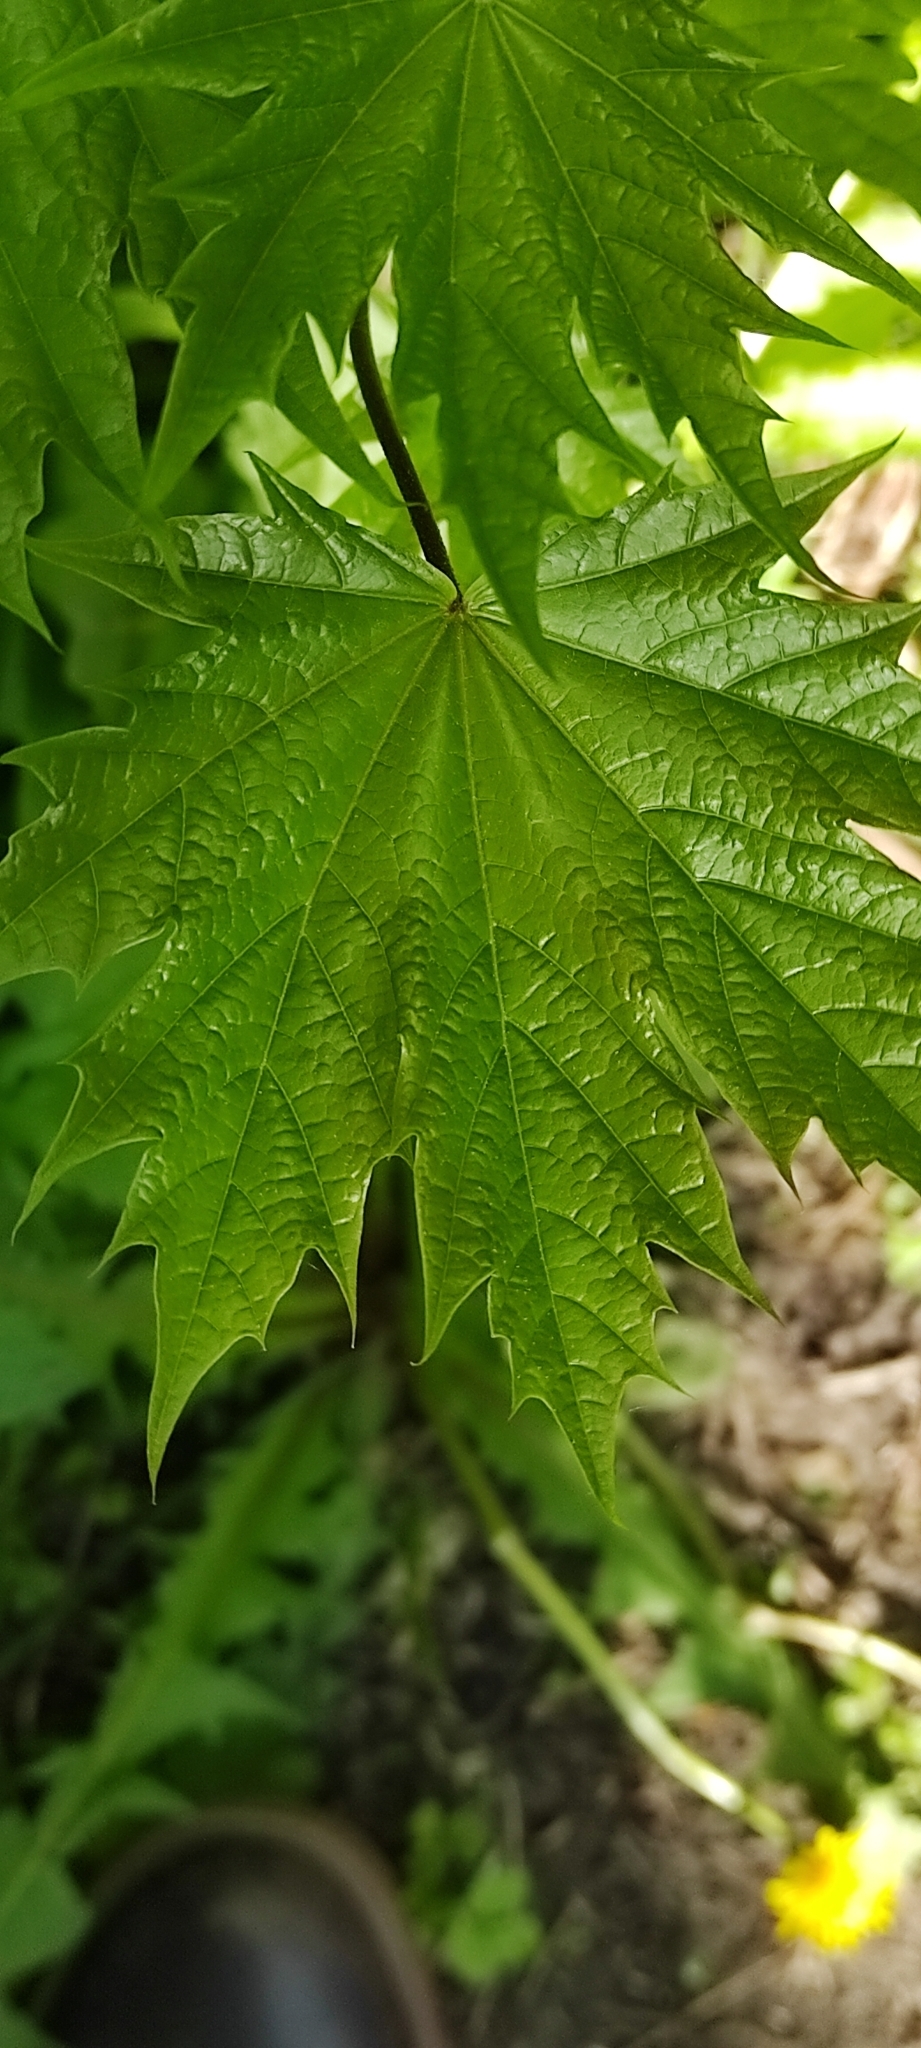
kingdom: Plantae
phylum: Tracheophyta
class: Magnoliopsida
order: Sapindales
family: Sapindaceae
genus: Acer
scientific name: Acer platanoides
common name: Norway maple
